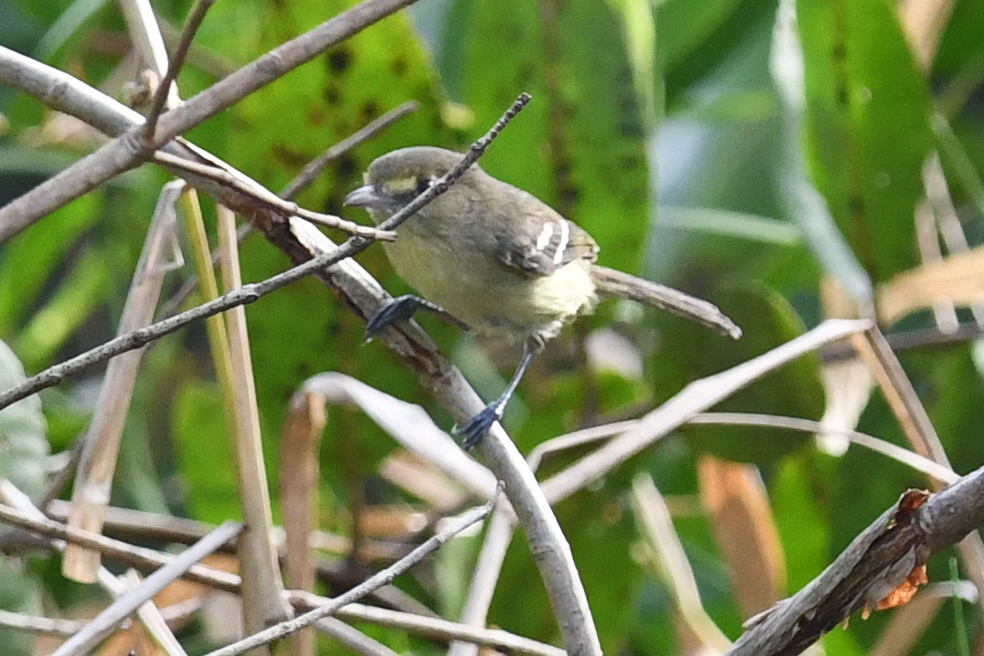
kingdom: Animalia
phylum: Chordata
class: Aves
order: Passeriformes
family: Vireonidae
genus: Vireo
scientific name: Vireo pallens
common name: Mangrove vireo
